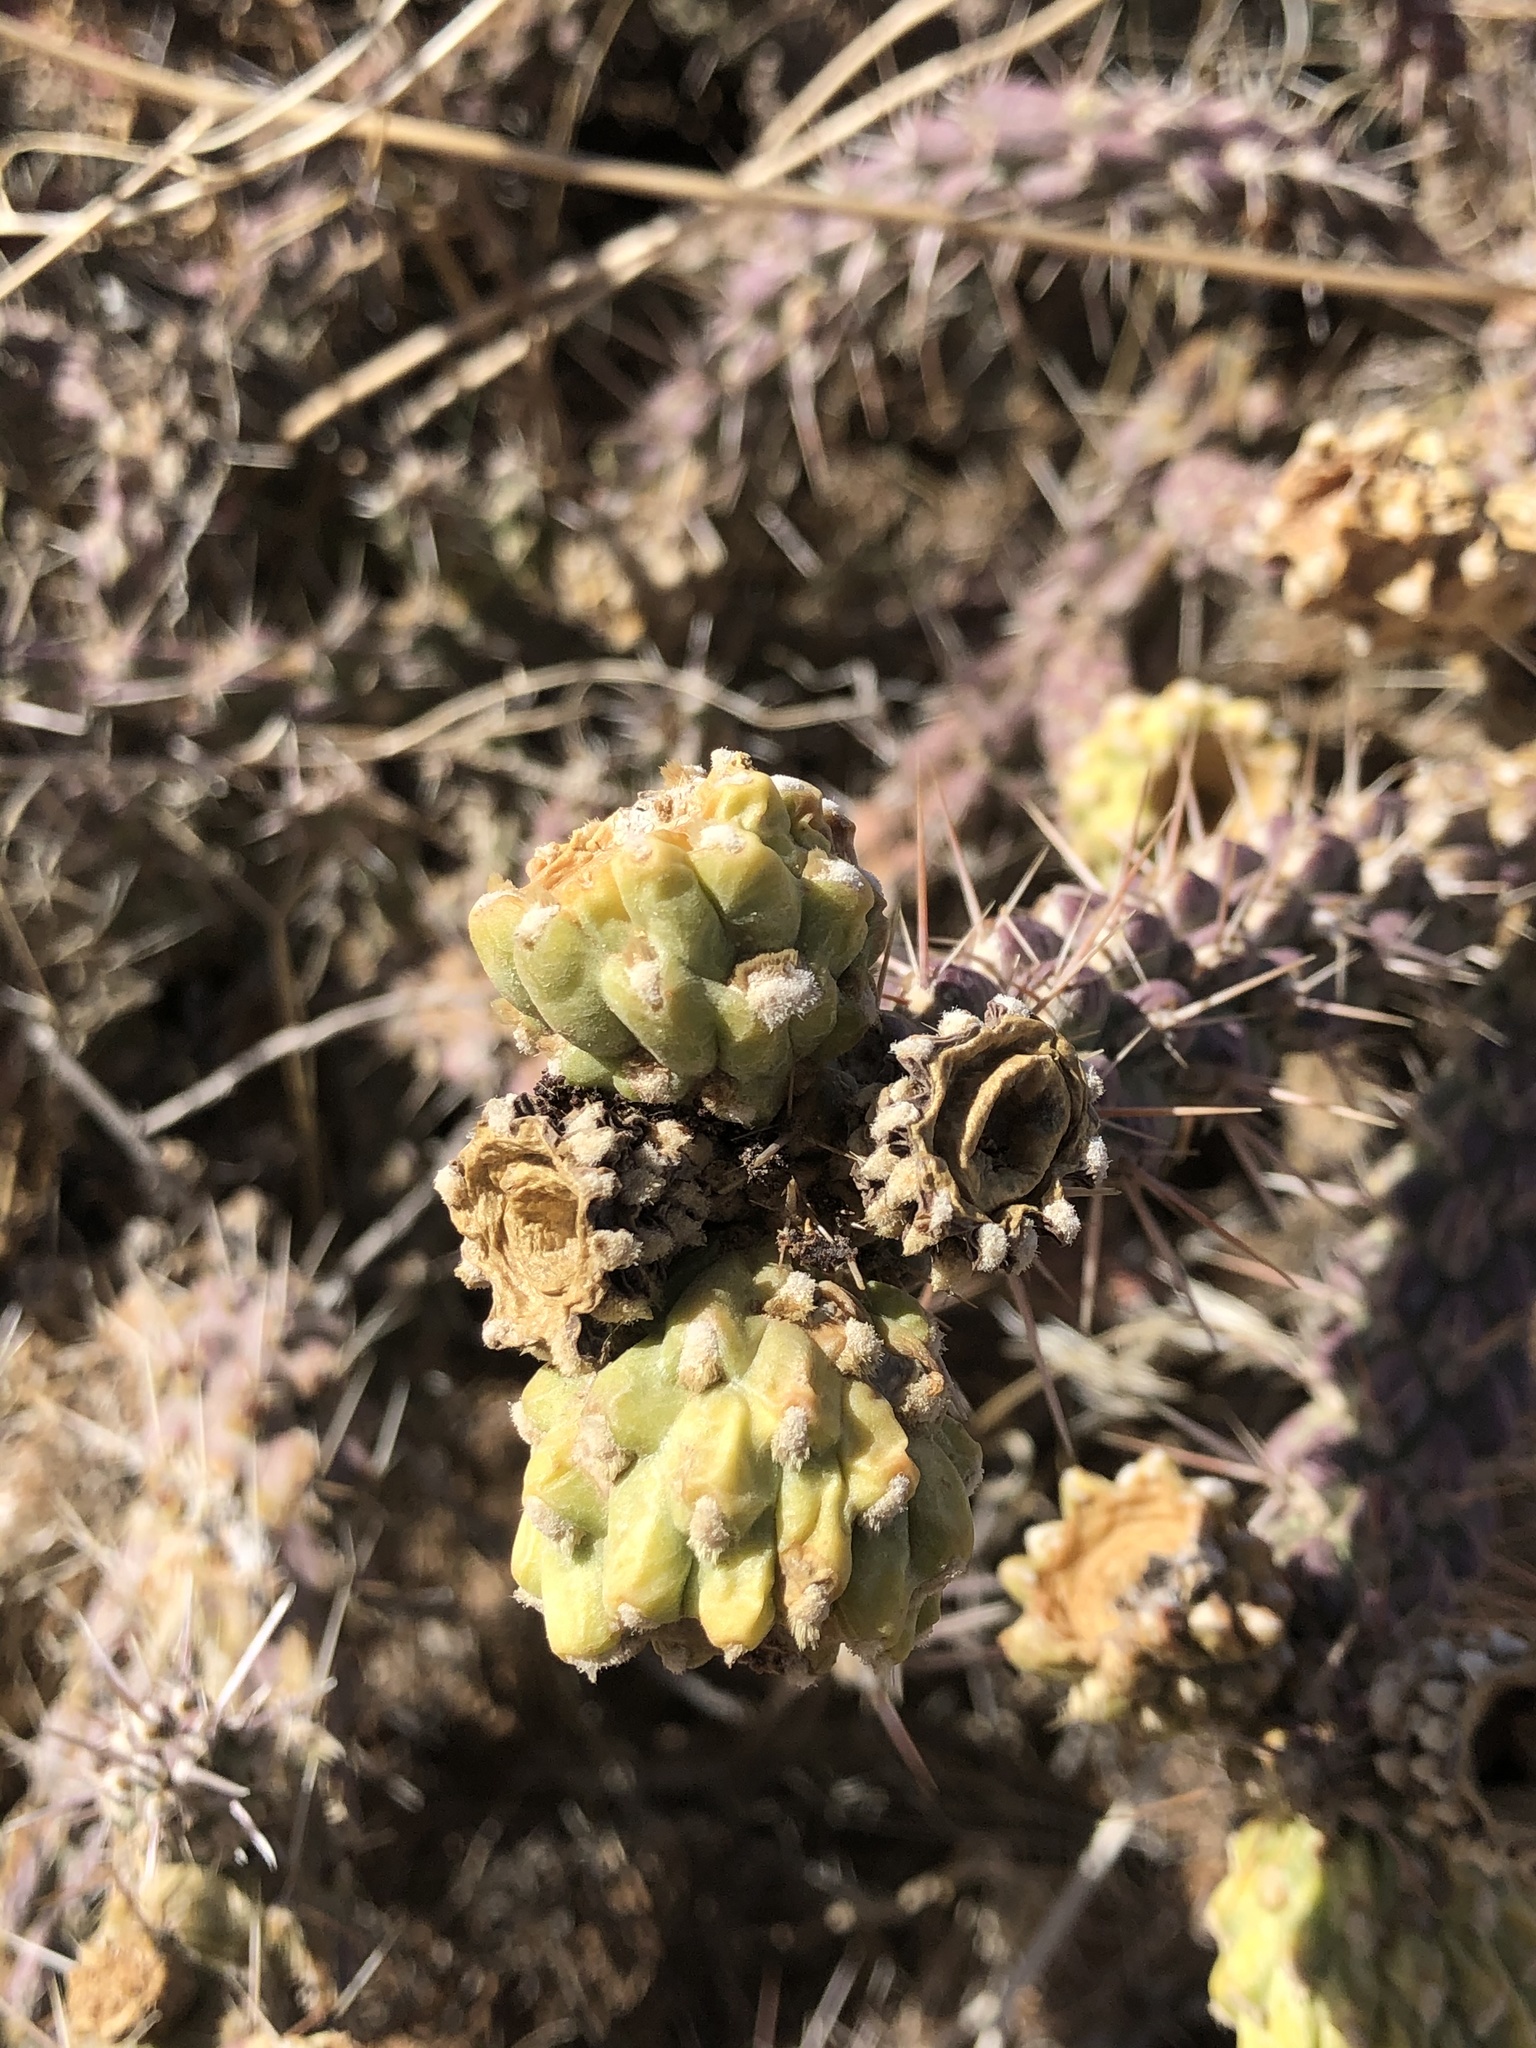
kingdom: Plantae
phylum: Tracheophyta
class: Magnoliopsida
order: Caryophyllales
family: Cactaceae
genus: Cylindropuntia
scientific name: Cylindropuntia whipplei
